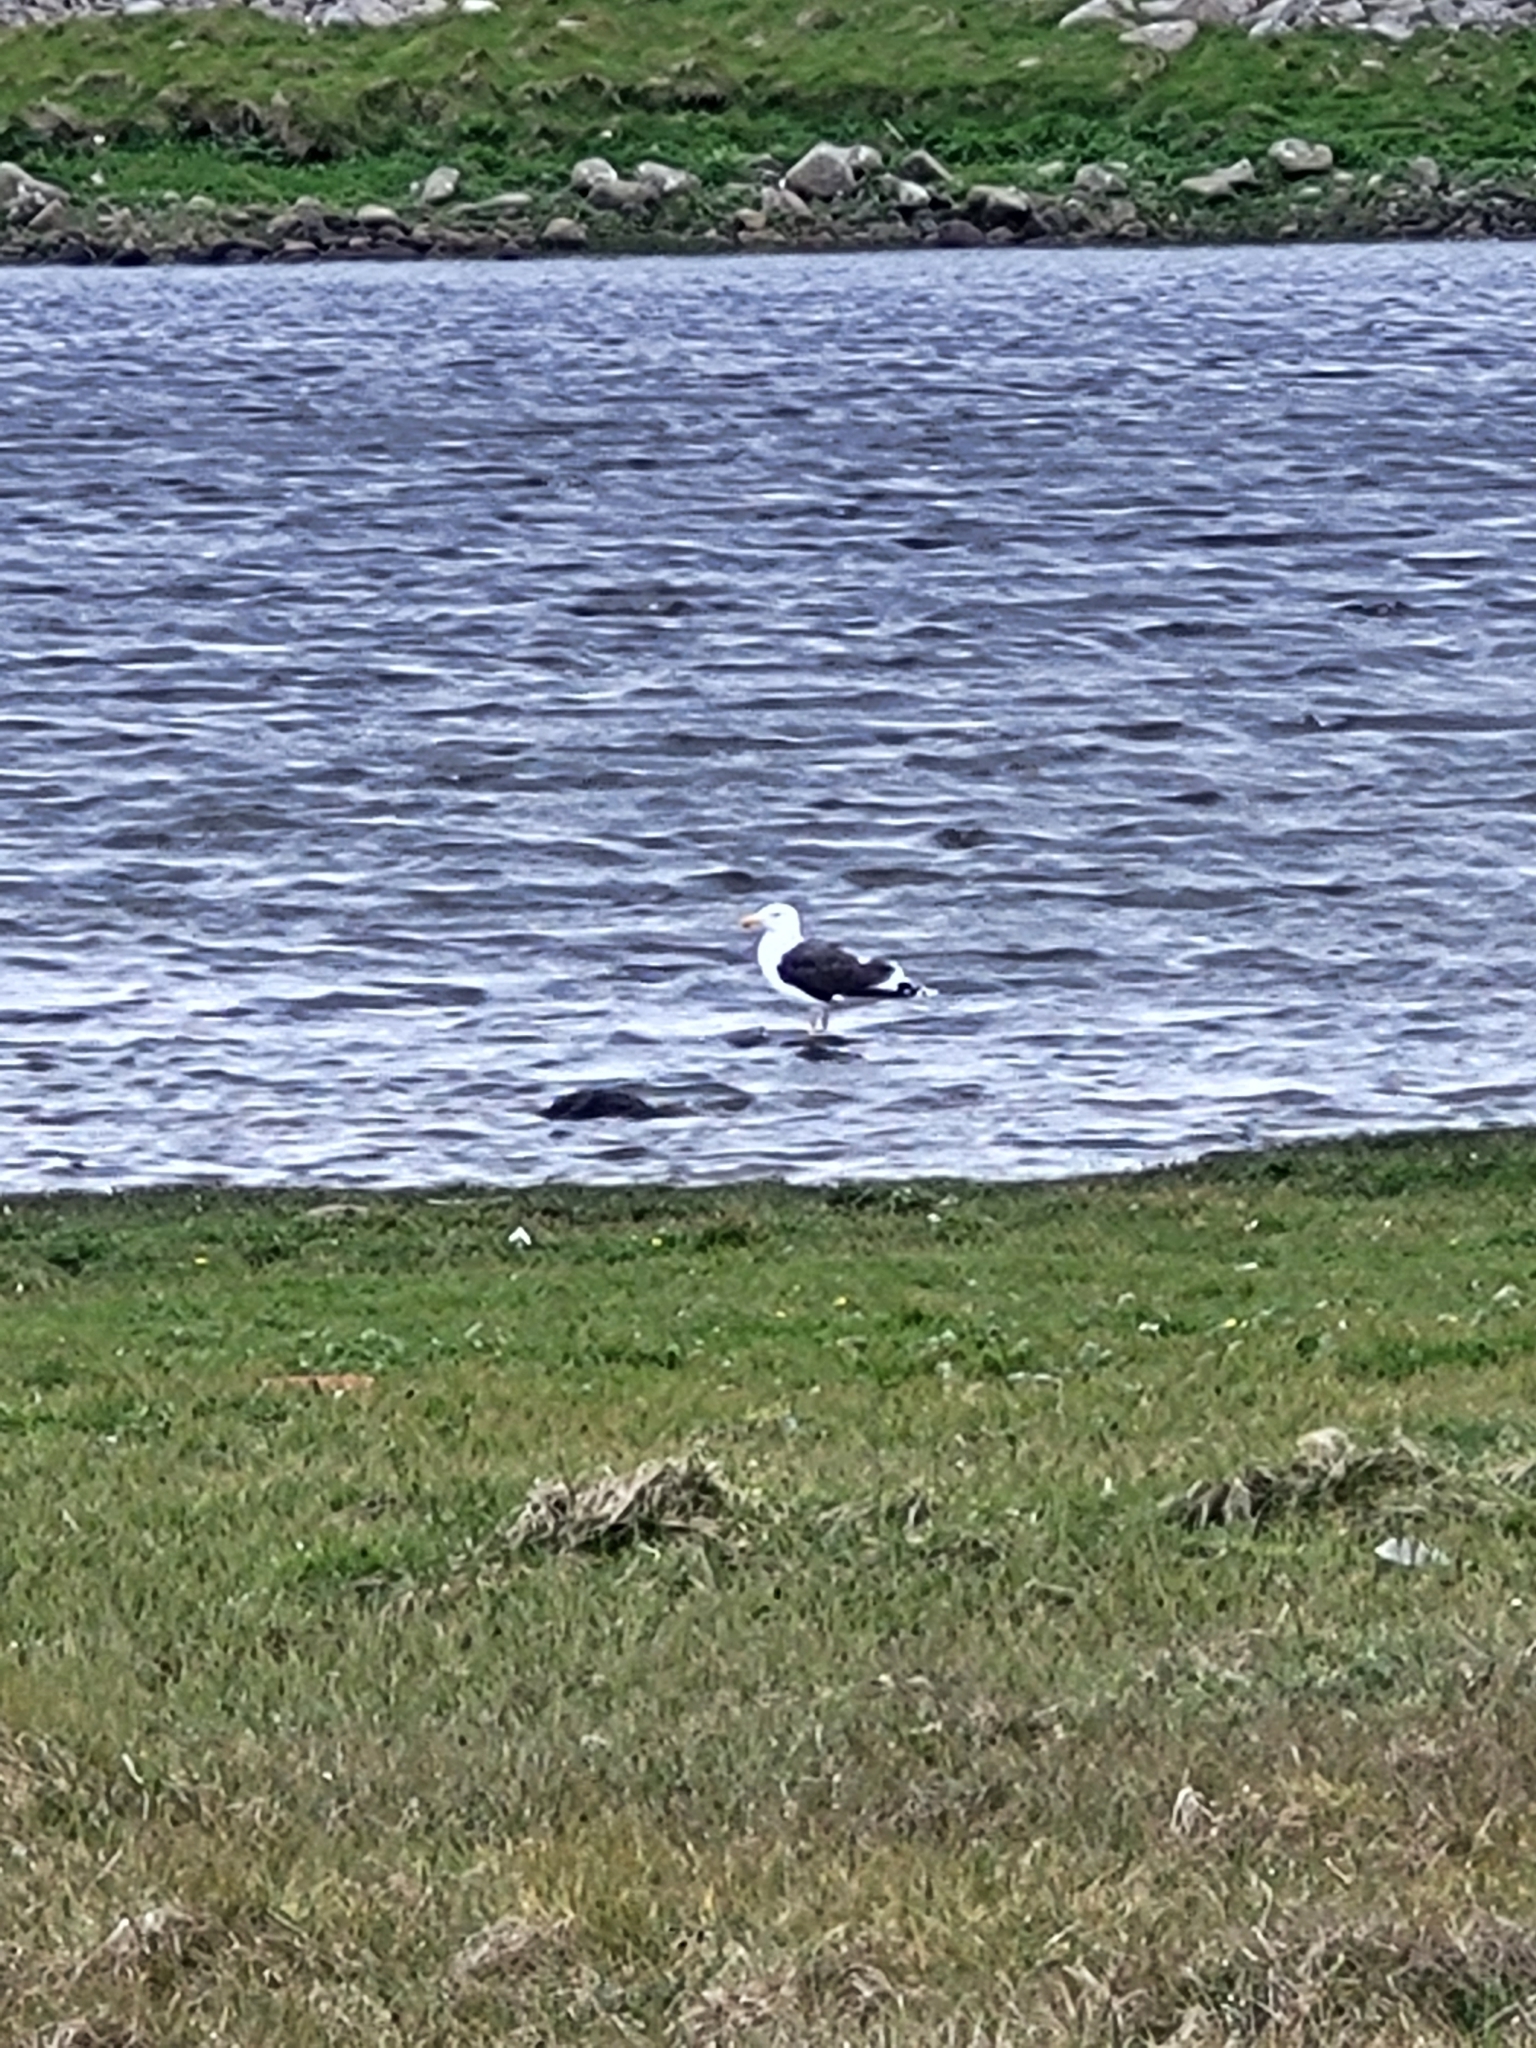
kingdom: Animalia
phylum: Chordata
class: Aves
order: Charadriiformes
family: Laridae
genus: Larus
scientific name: Larus marinus
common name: Great black-backed gull
